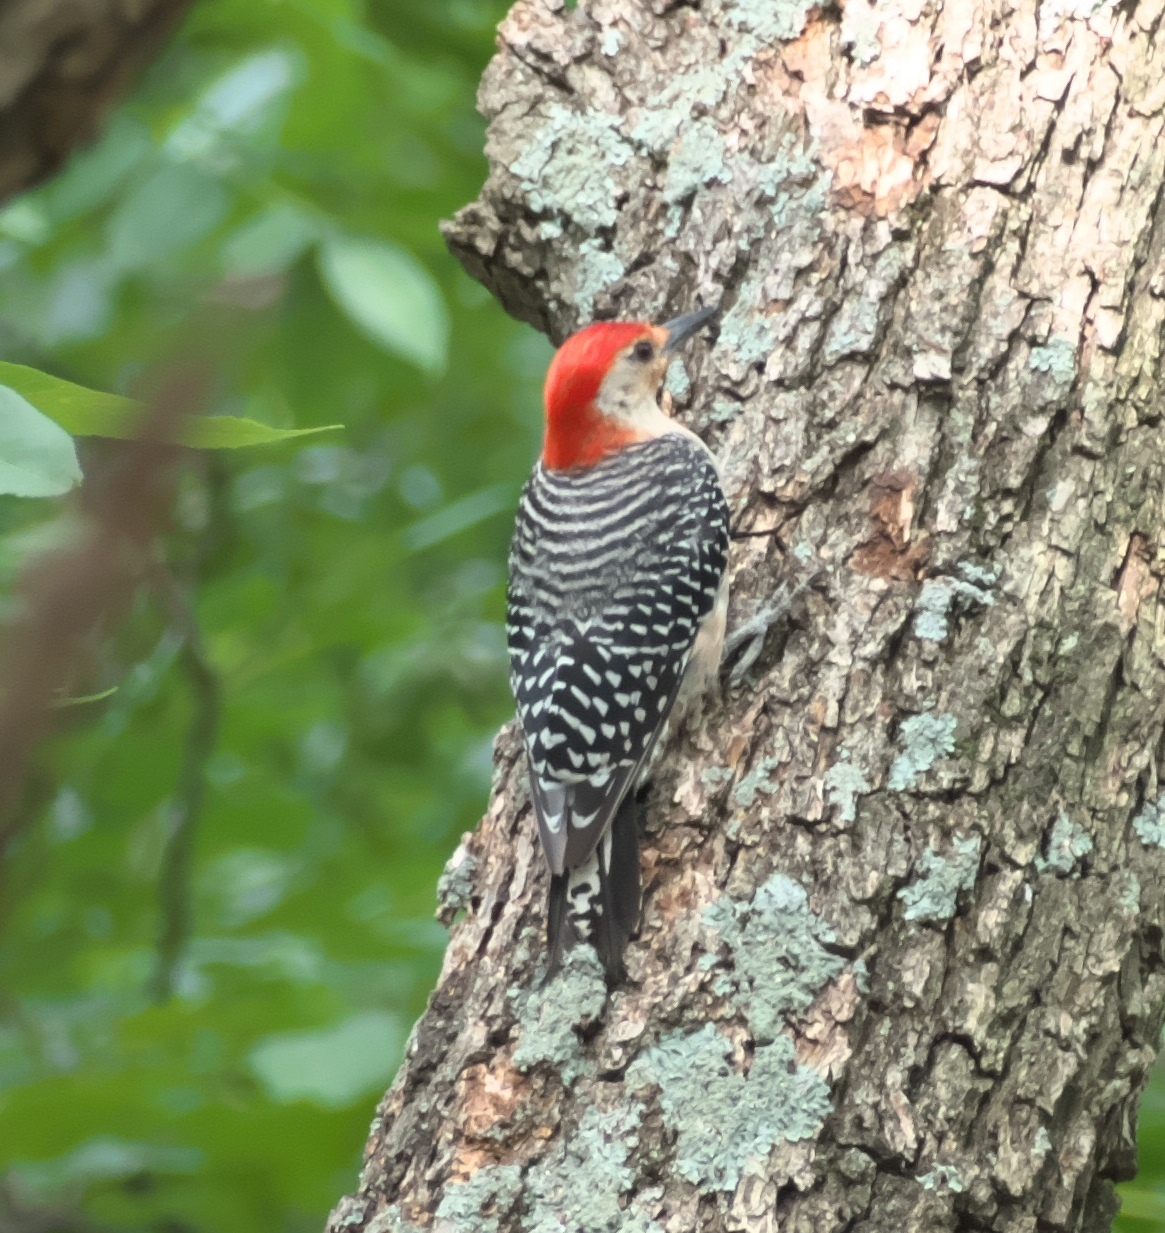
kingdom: Animalia
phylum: Chordata
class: Aves
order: Piciformes
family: Picidae
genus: Melanerpes
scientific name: Melanerpes carolinus
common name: Red-bellied woodpecker
